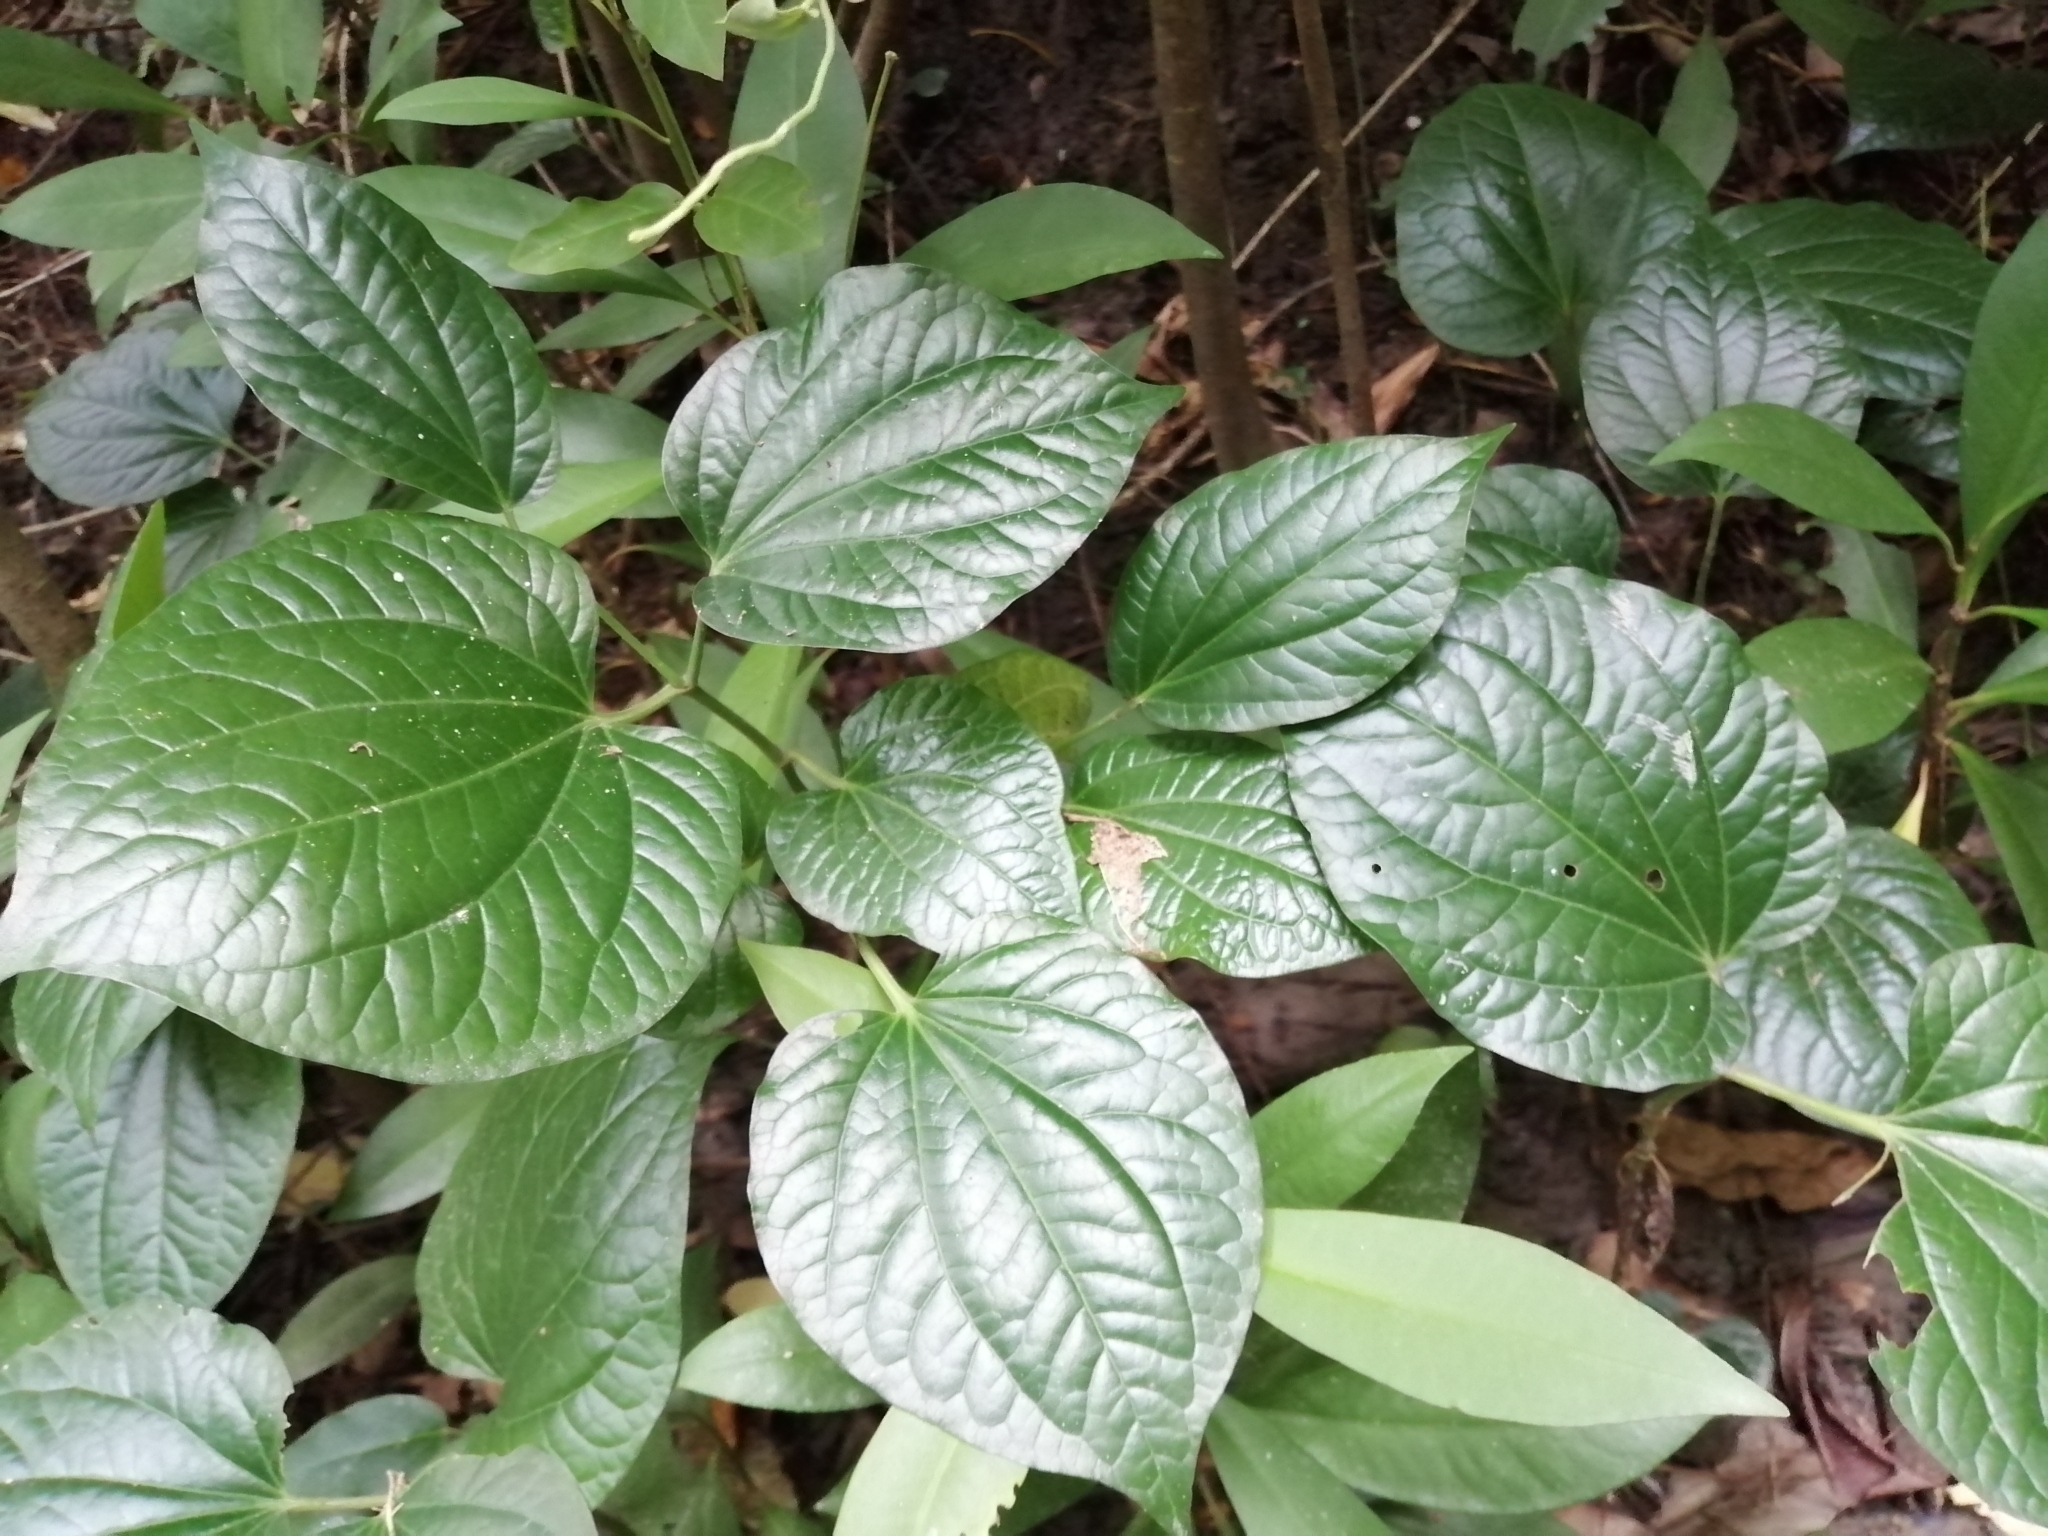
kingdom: Plantae
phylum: Tracheophyta
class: Magnoliopsida
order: Piperales
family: Piperaceae
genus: Piper
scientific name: Piper sarmentosum
